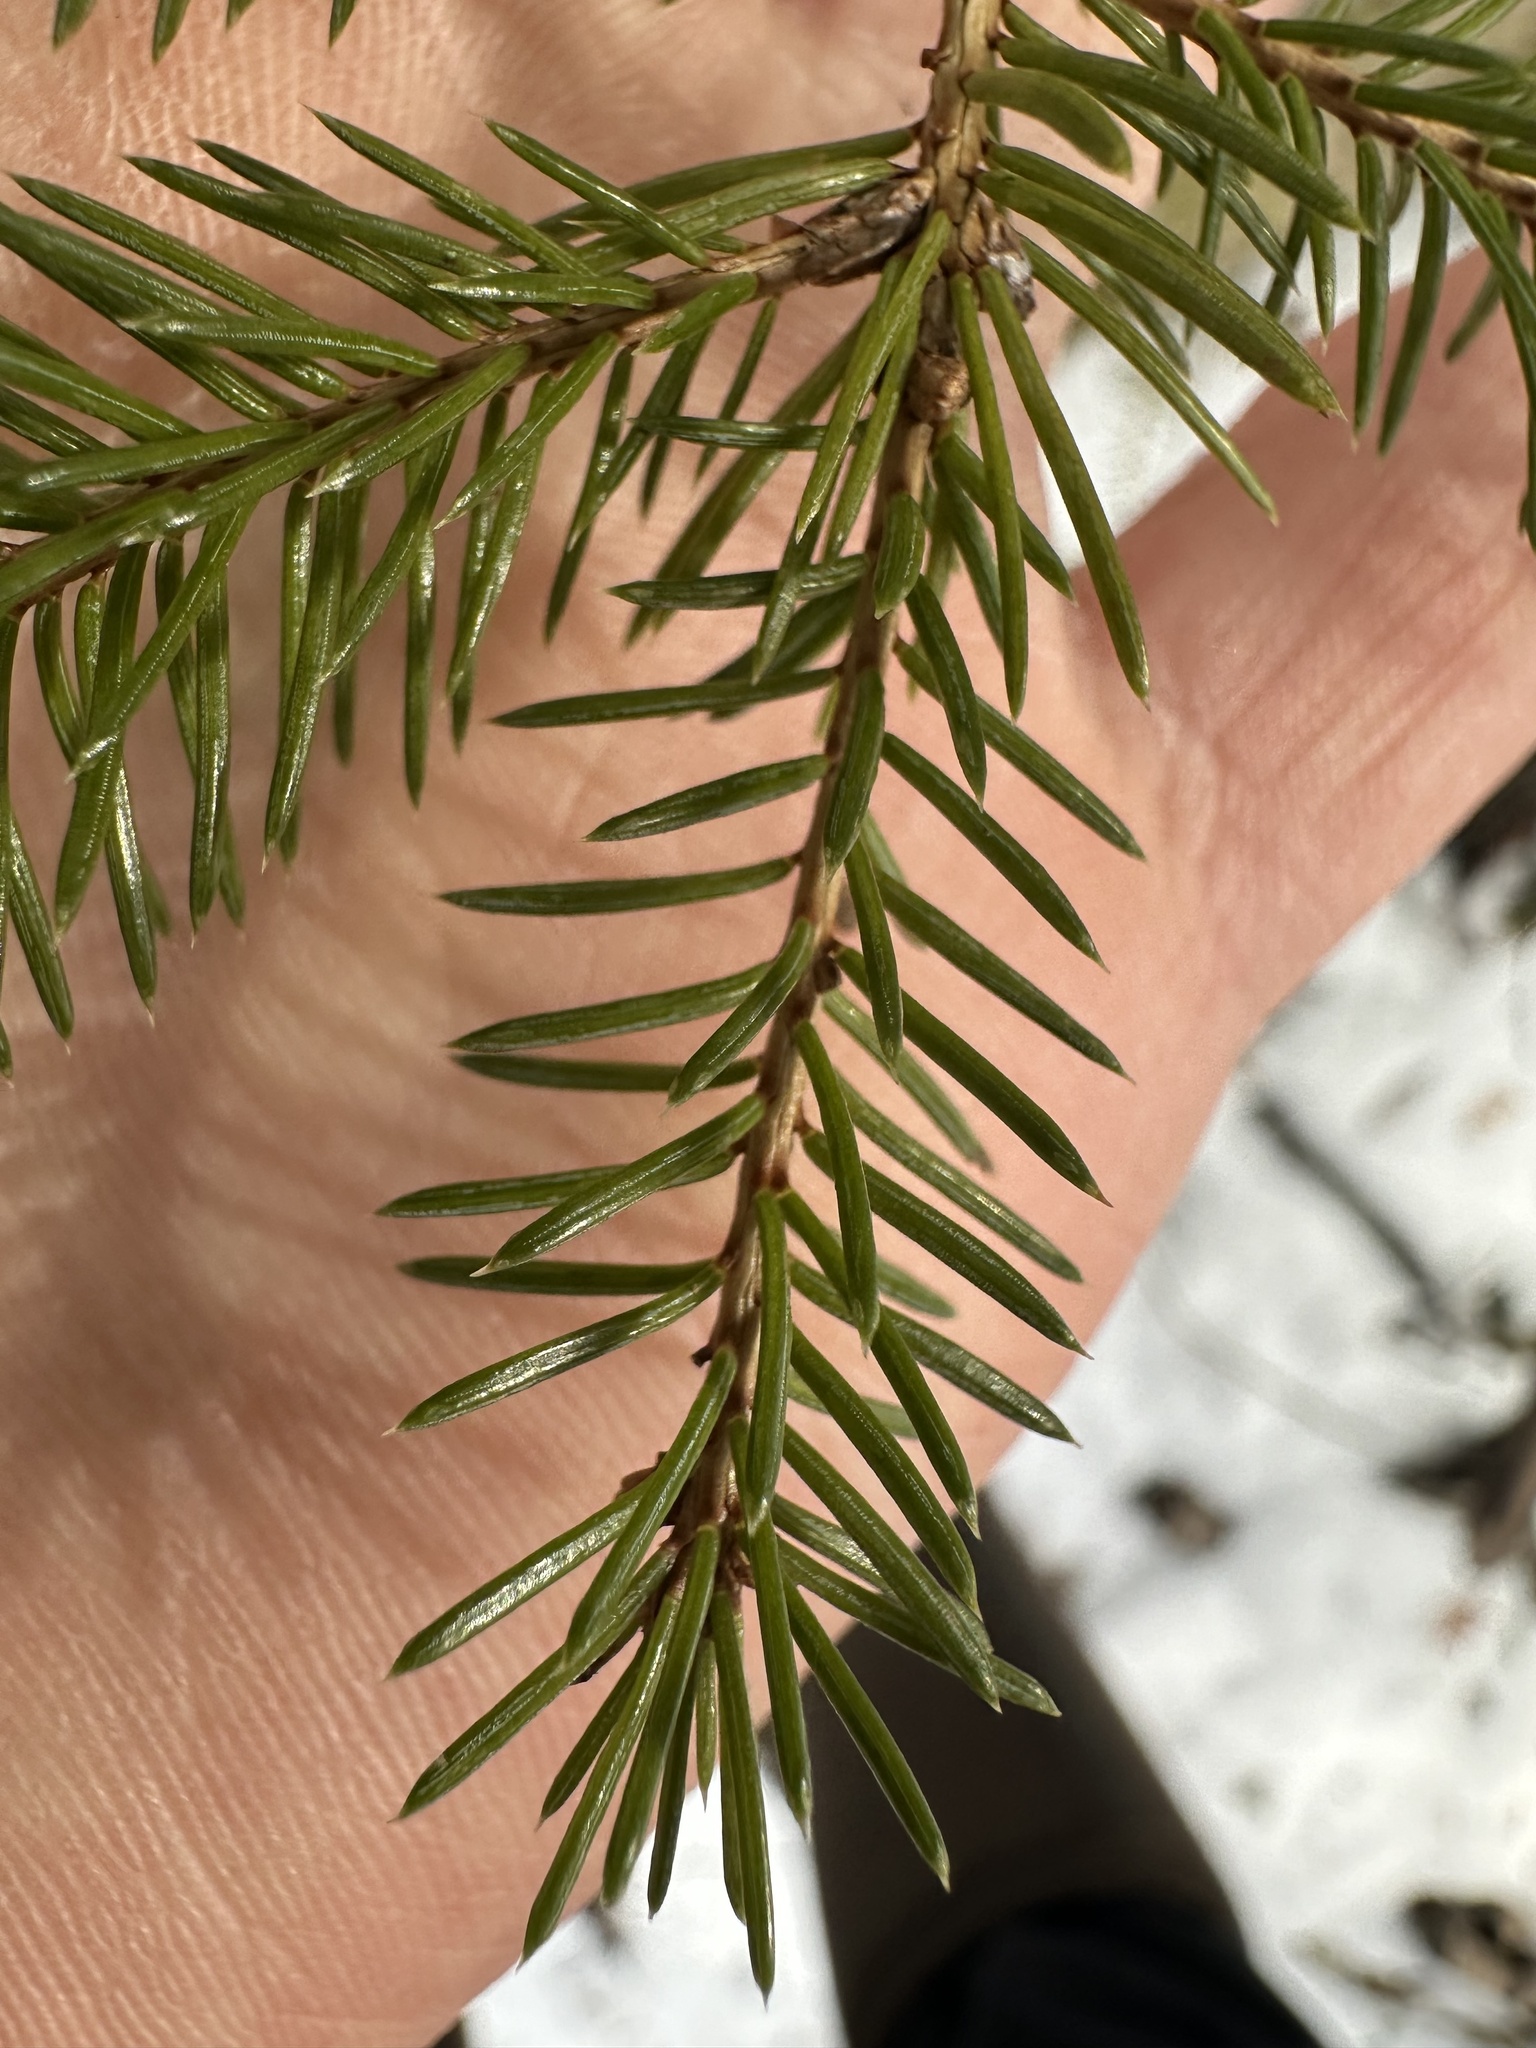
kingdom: Plantae
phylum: Tracheophyta
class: Pinopsida
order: Pinales
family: Pinaceae
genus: Picea
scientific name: Picea glauca
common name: White spruce
